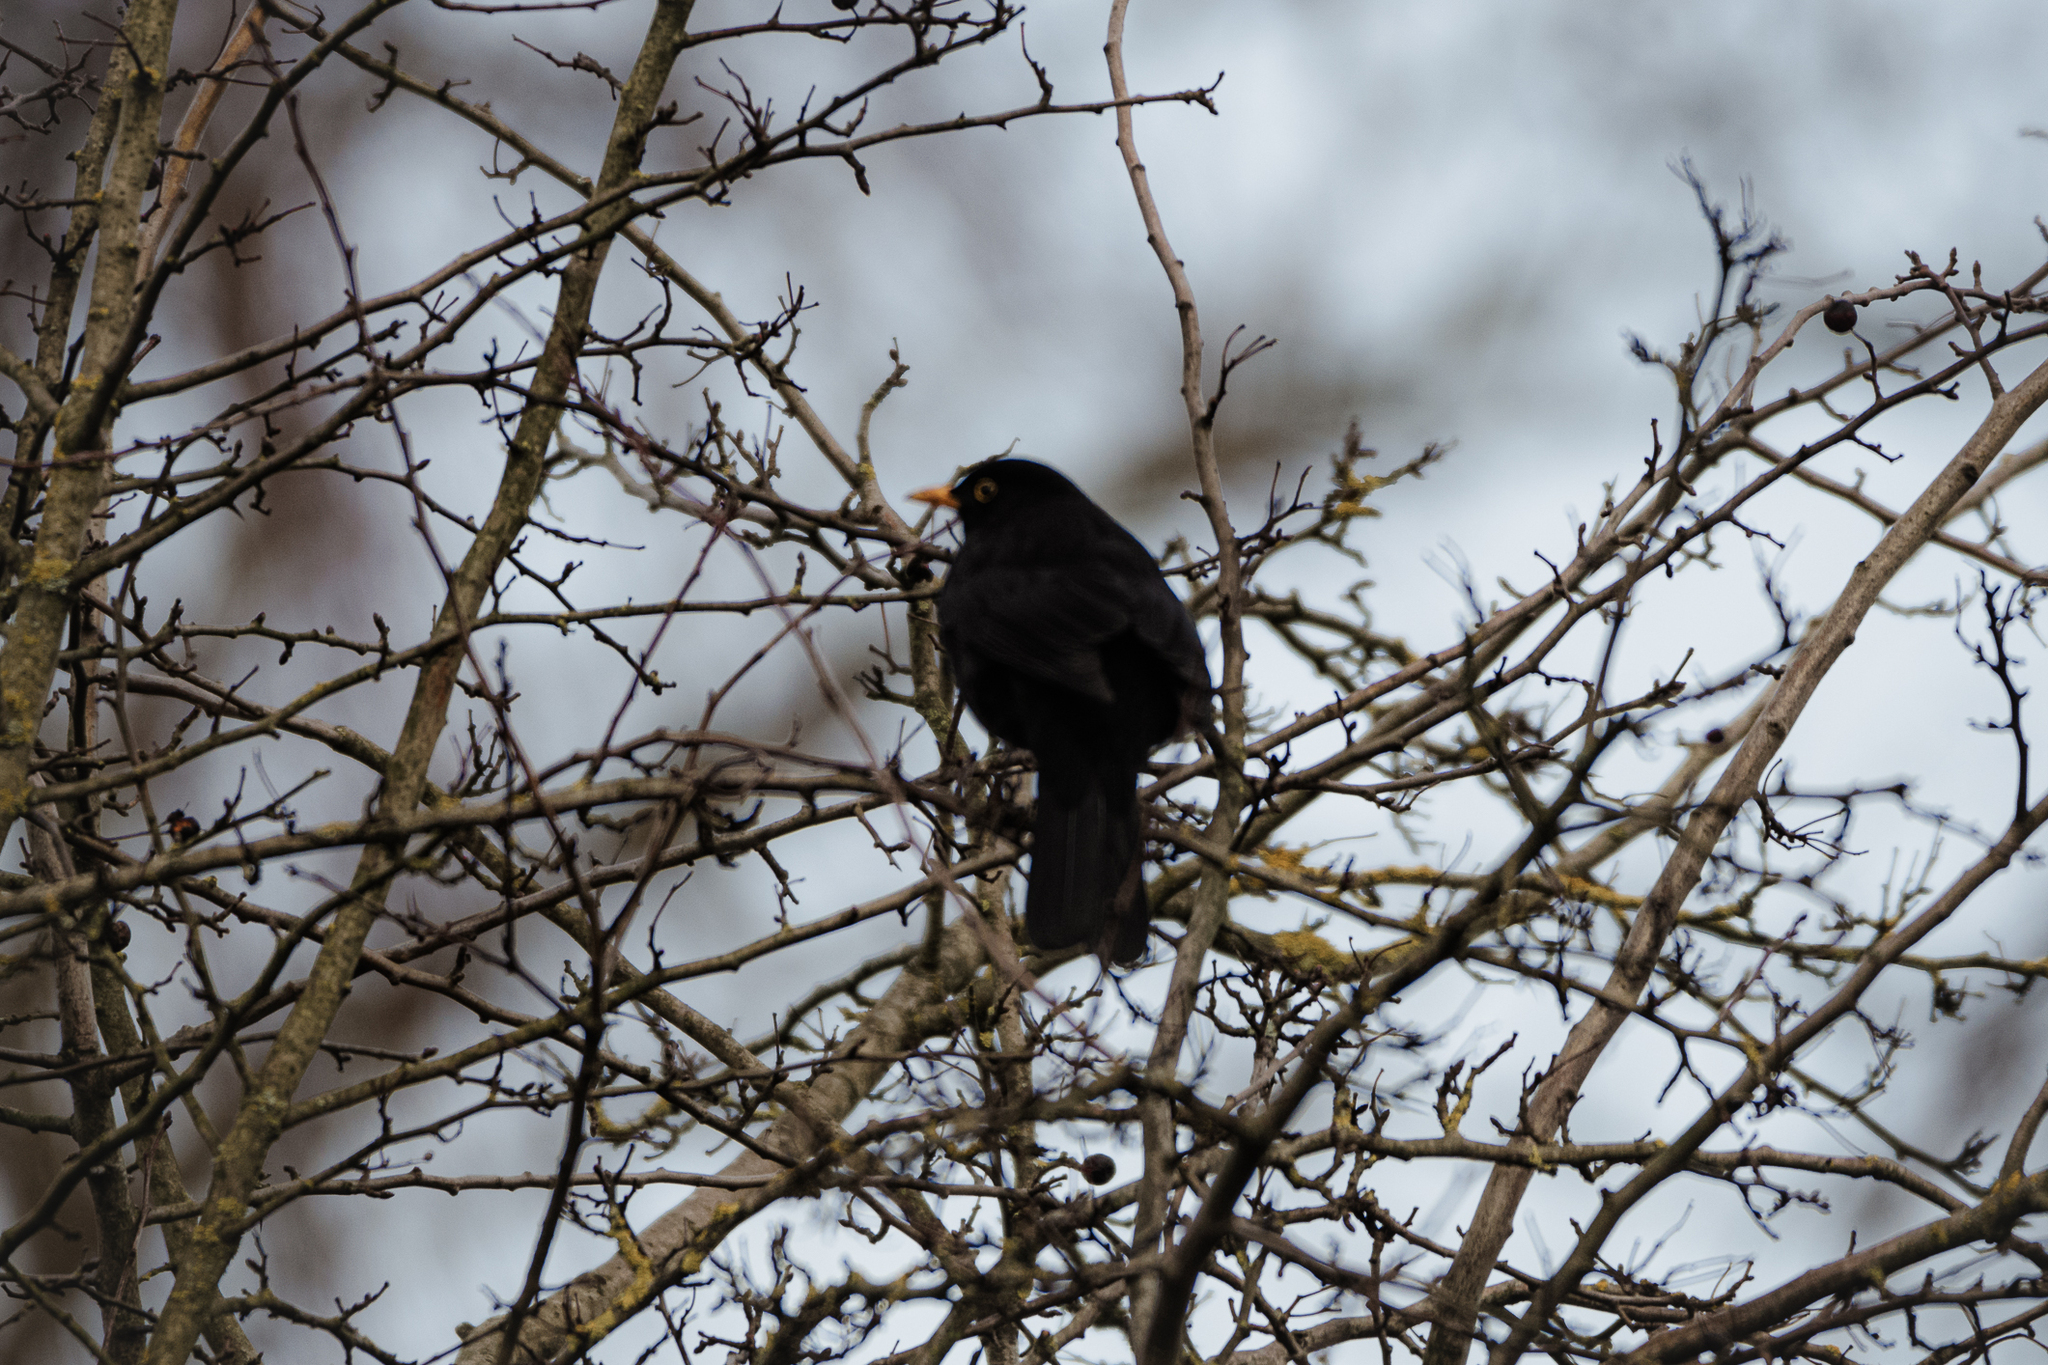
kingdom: Animalia
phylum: Chordata
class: Aves
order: Passeriformes
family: Turdidae
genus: Turdus
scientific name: Turdus merula
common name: Common blackbird
